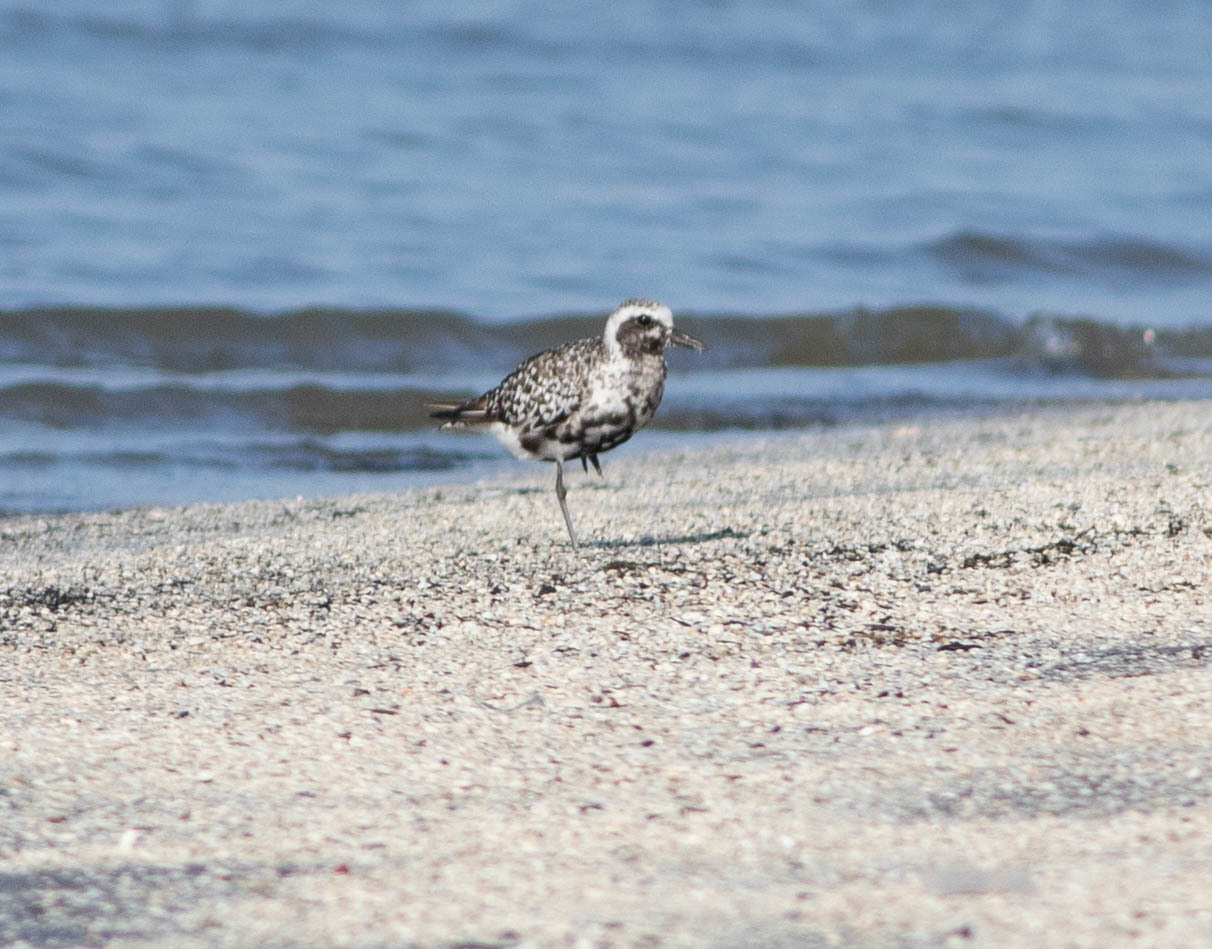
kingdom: Animalia
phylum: Chordata
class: Aves
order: Charadriiformes
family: Charadriidae
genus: Pluvialis
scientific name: Pluvialis squatarola
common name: Grey plover
